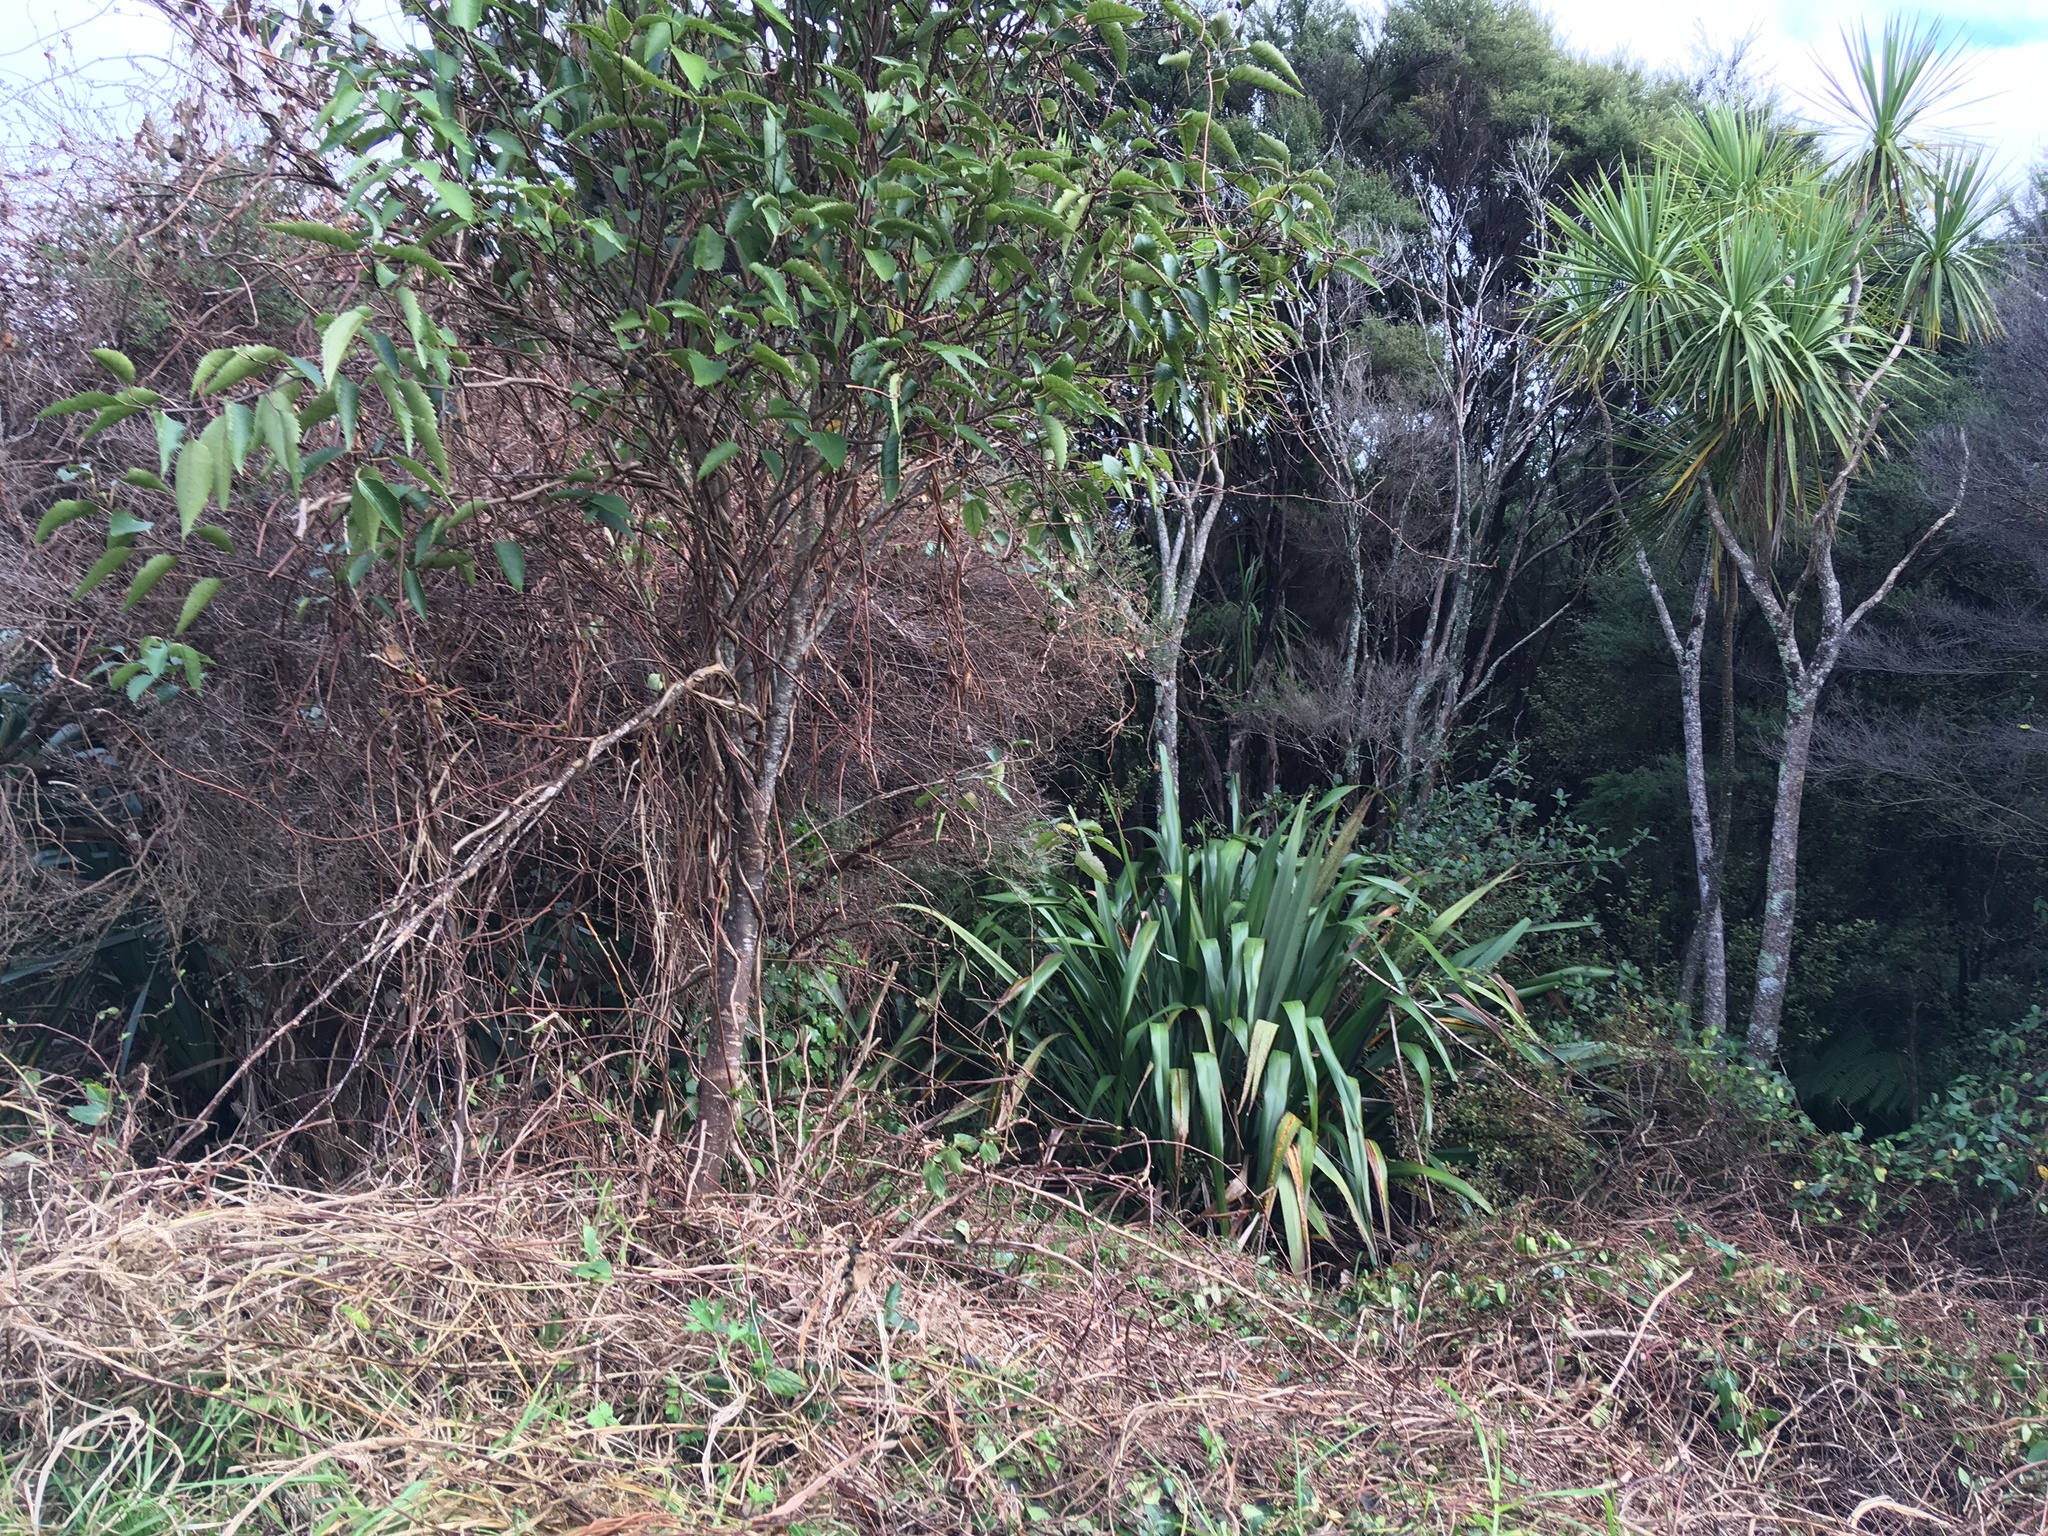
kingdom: Plantae
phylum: Tracheophyta
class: Liliopsida
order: Asparagales
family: Asparagaceae
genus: Cordyline
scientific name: Cordyline australis
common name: Cabbage-palm
